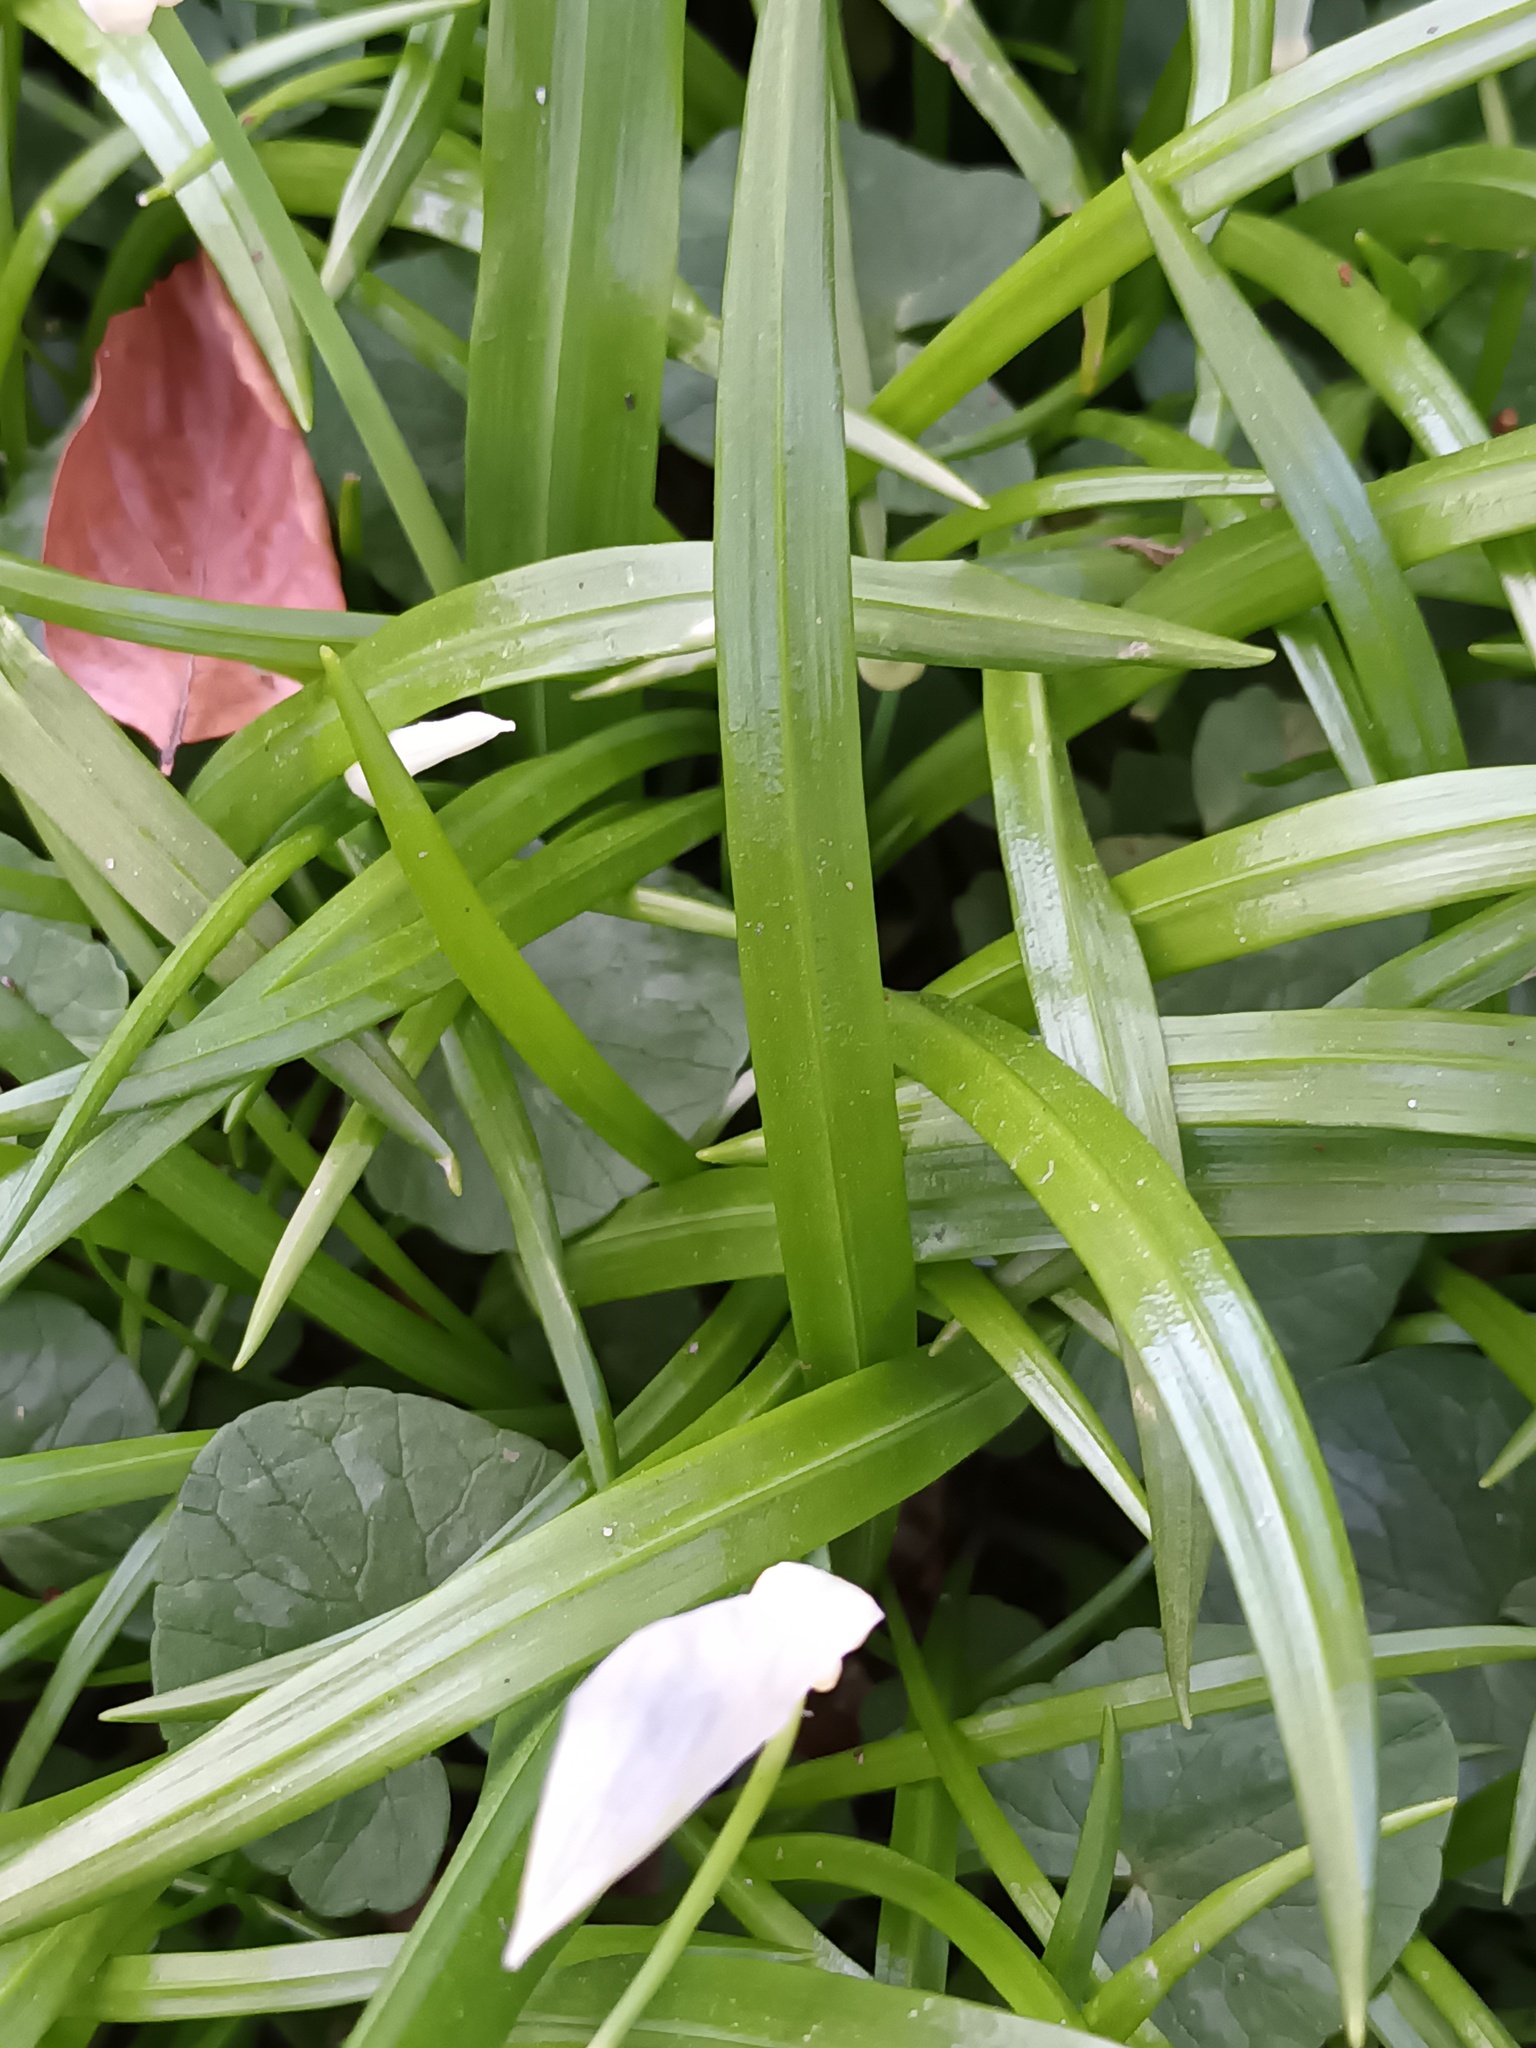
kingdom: Plantae
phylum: Tracheophyta
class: Liliopsida
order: Asparagales
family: Amaryllidaceae
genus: Allium
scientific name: Allium paradoxum
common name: Few-flowered garlic
